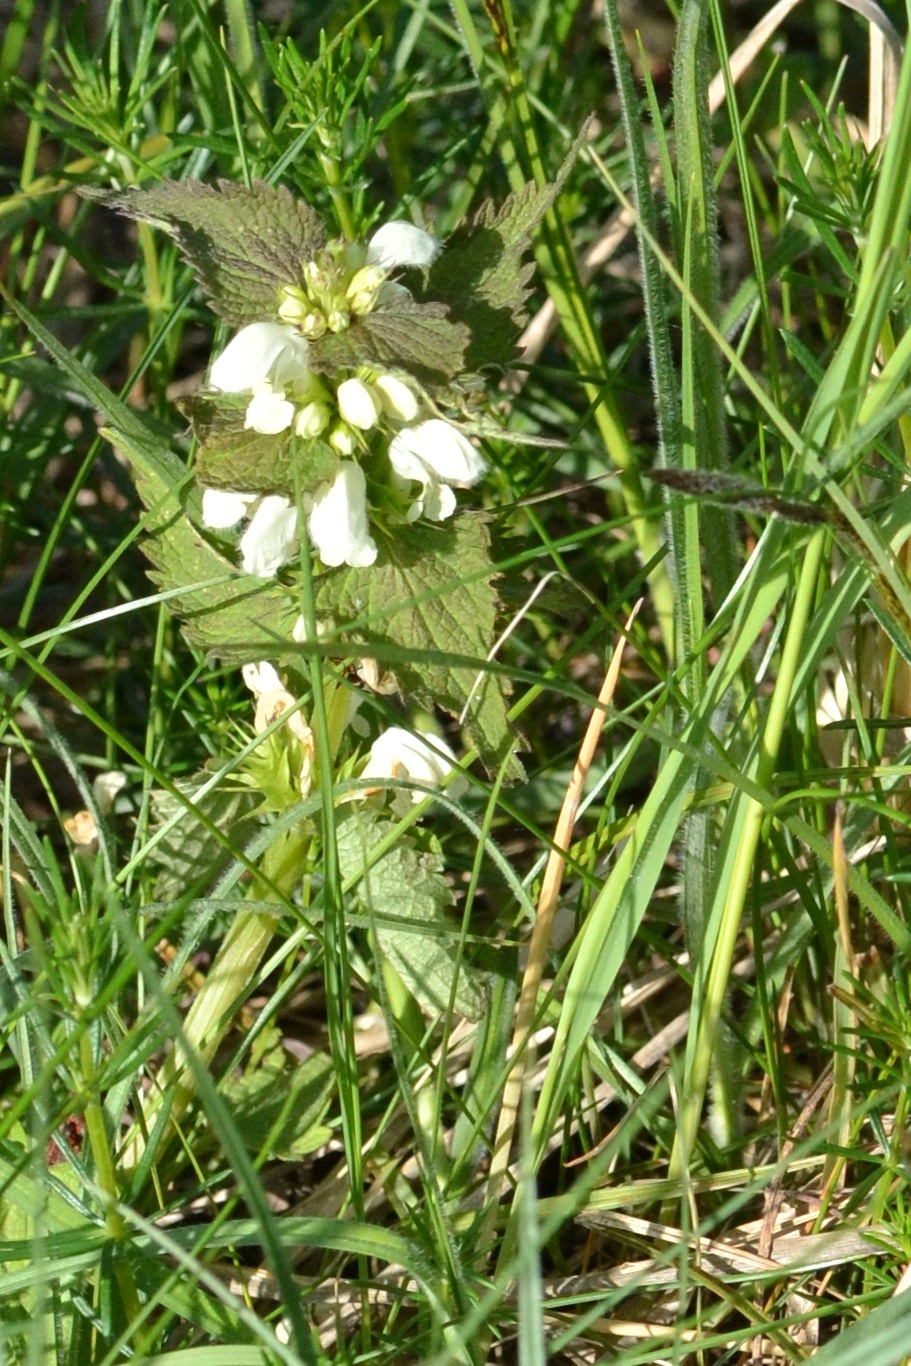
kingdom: Plantae
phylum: Tracheophyta
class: Magnoliopsida
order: Lamiales
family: Lamiaceae
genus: Lamium
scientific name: Lamium album
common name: White dead-nettle
